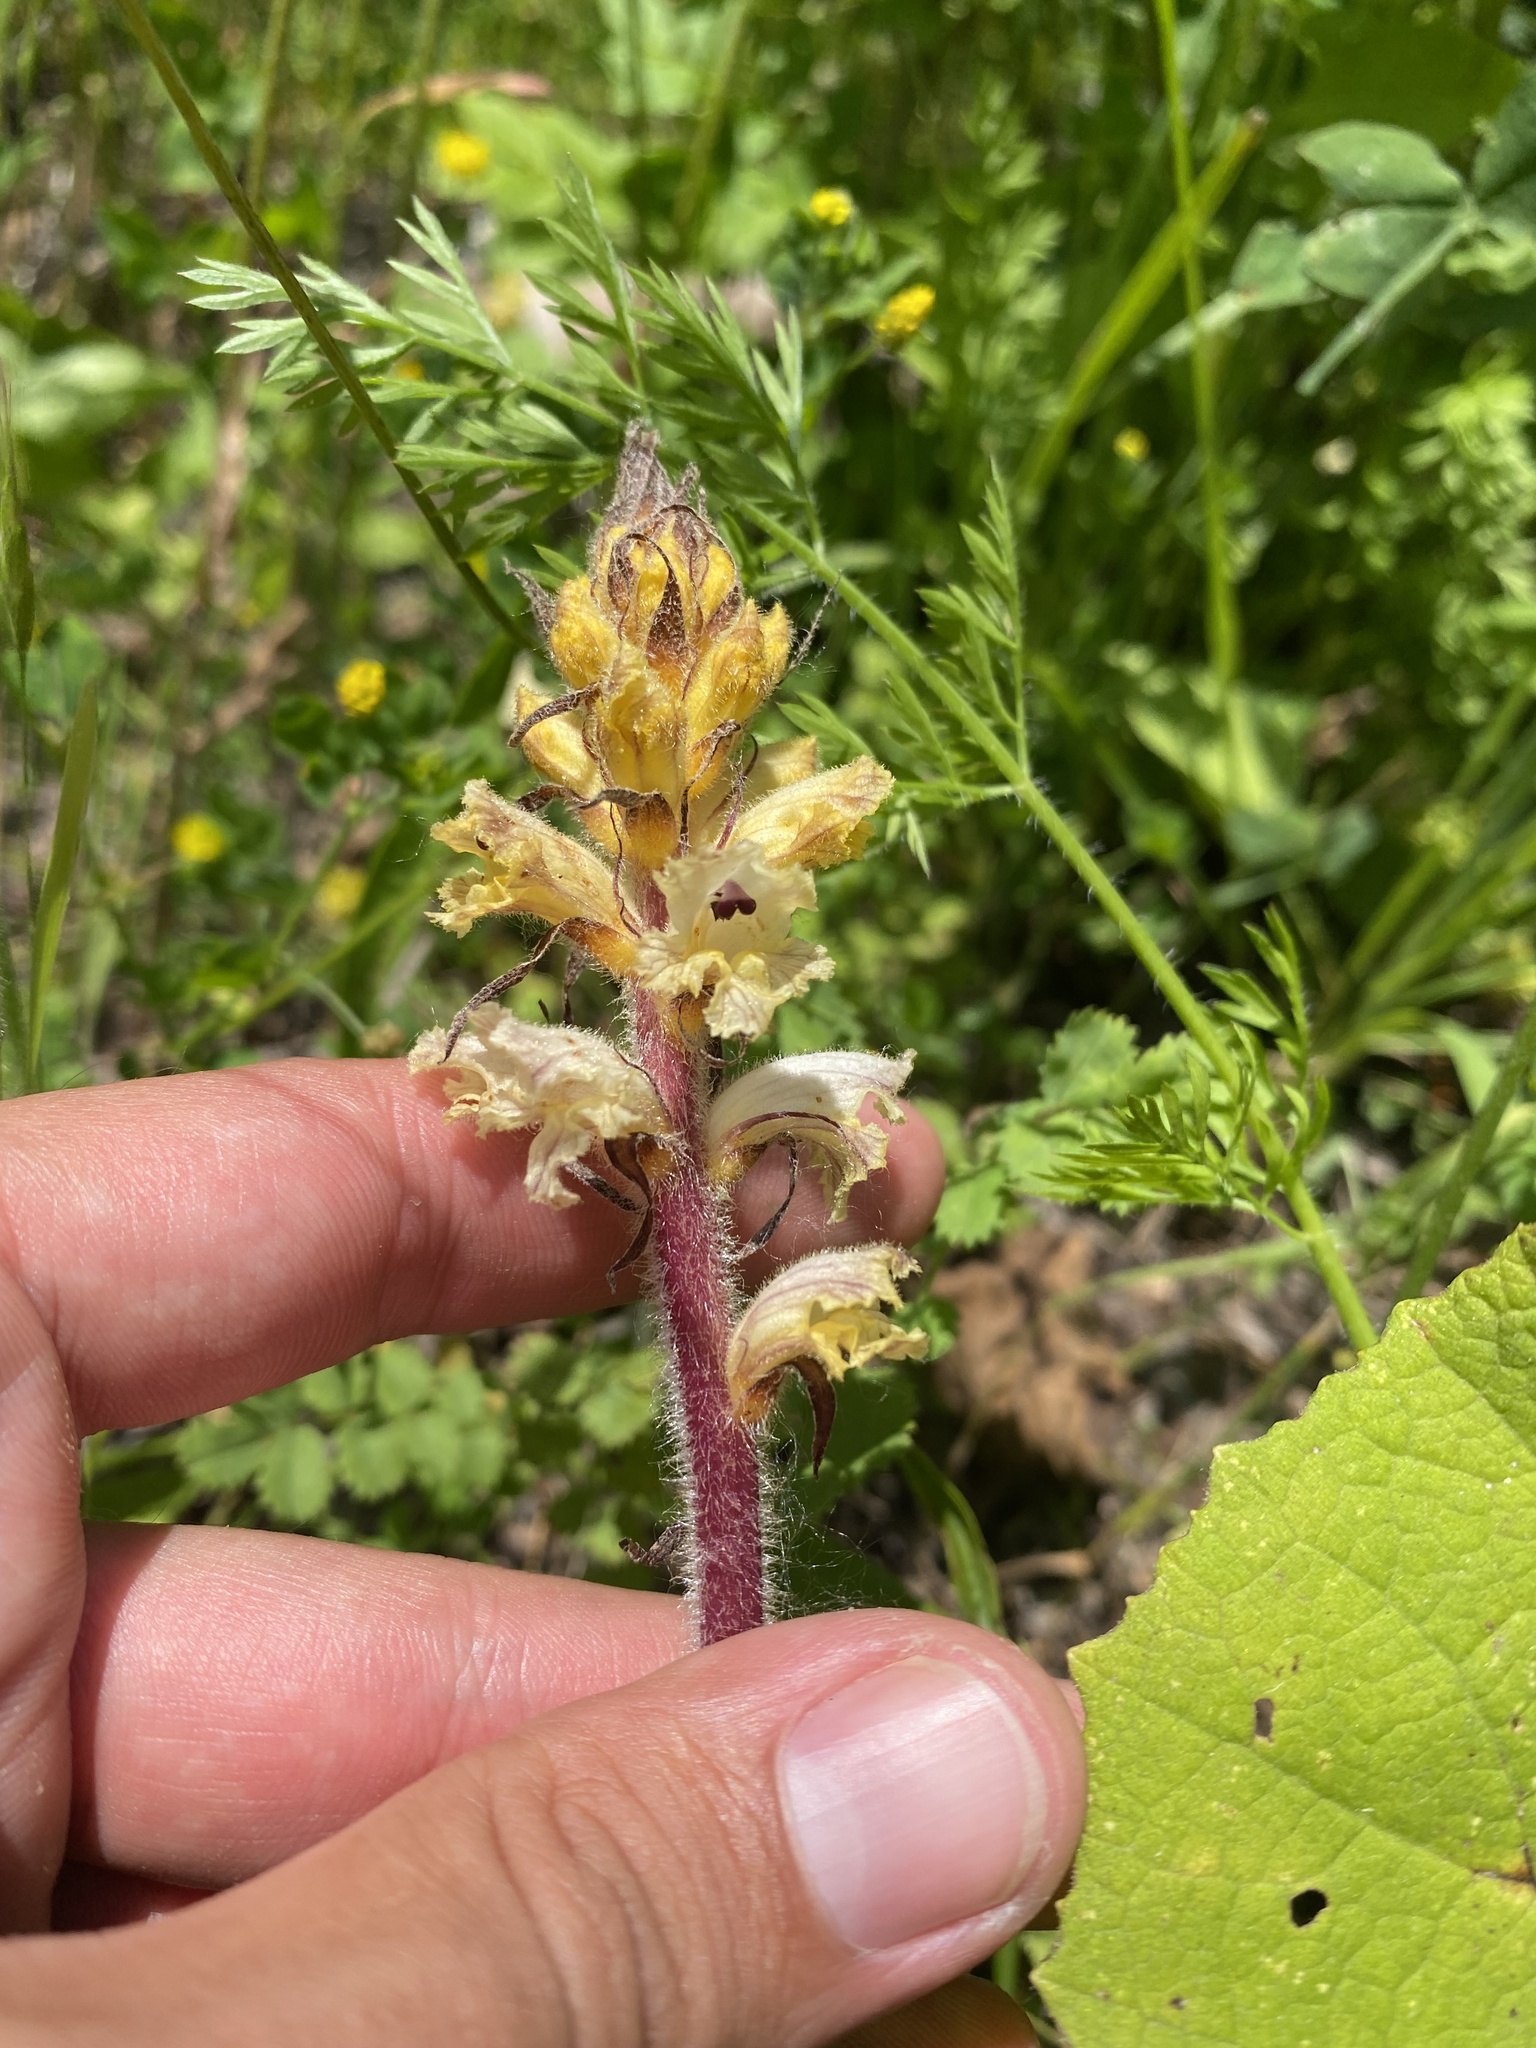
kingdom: Plantae
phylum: Tracheophyta
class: Magnoliopsida
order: Lamiales
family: Orobanchaceae
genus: Orobanche
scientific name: Orobanche owerinii
